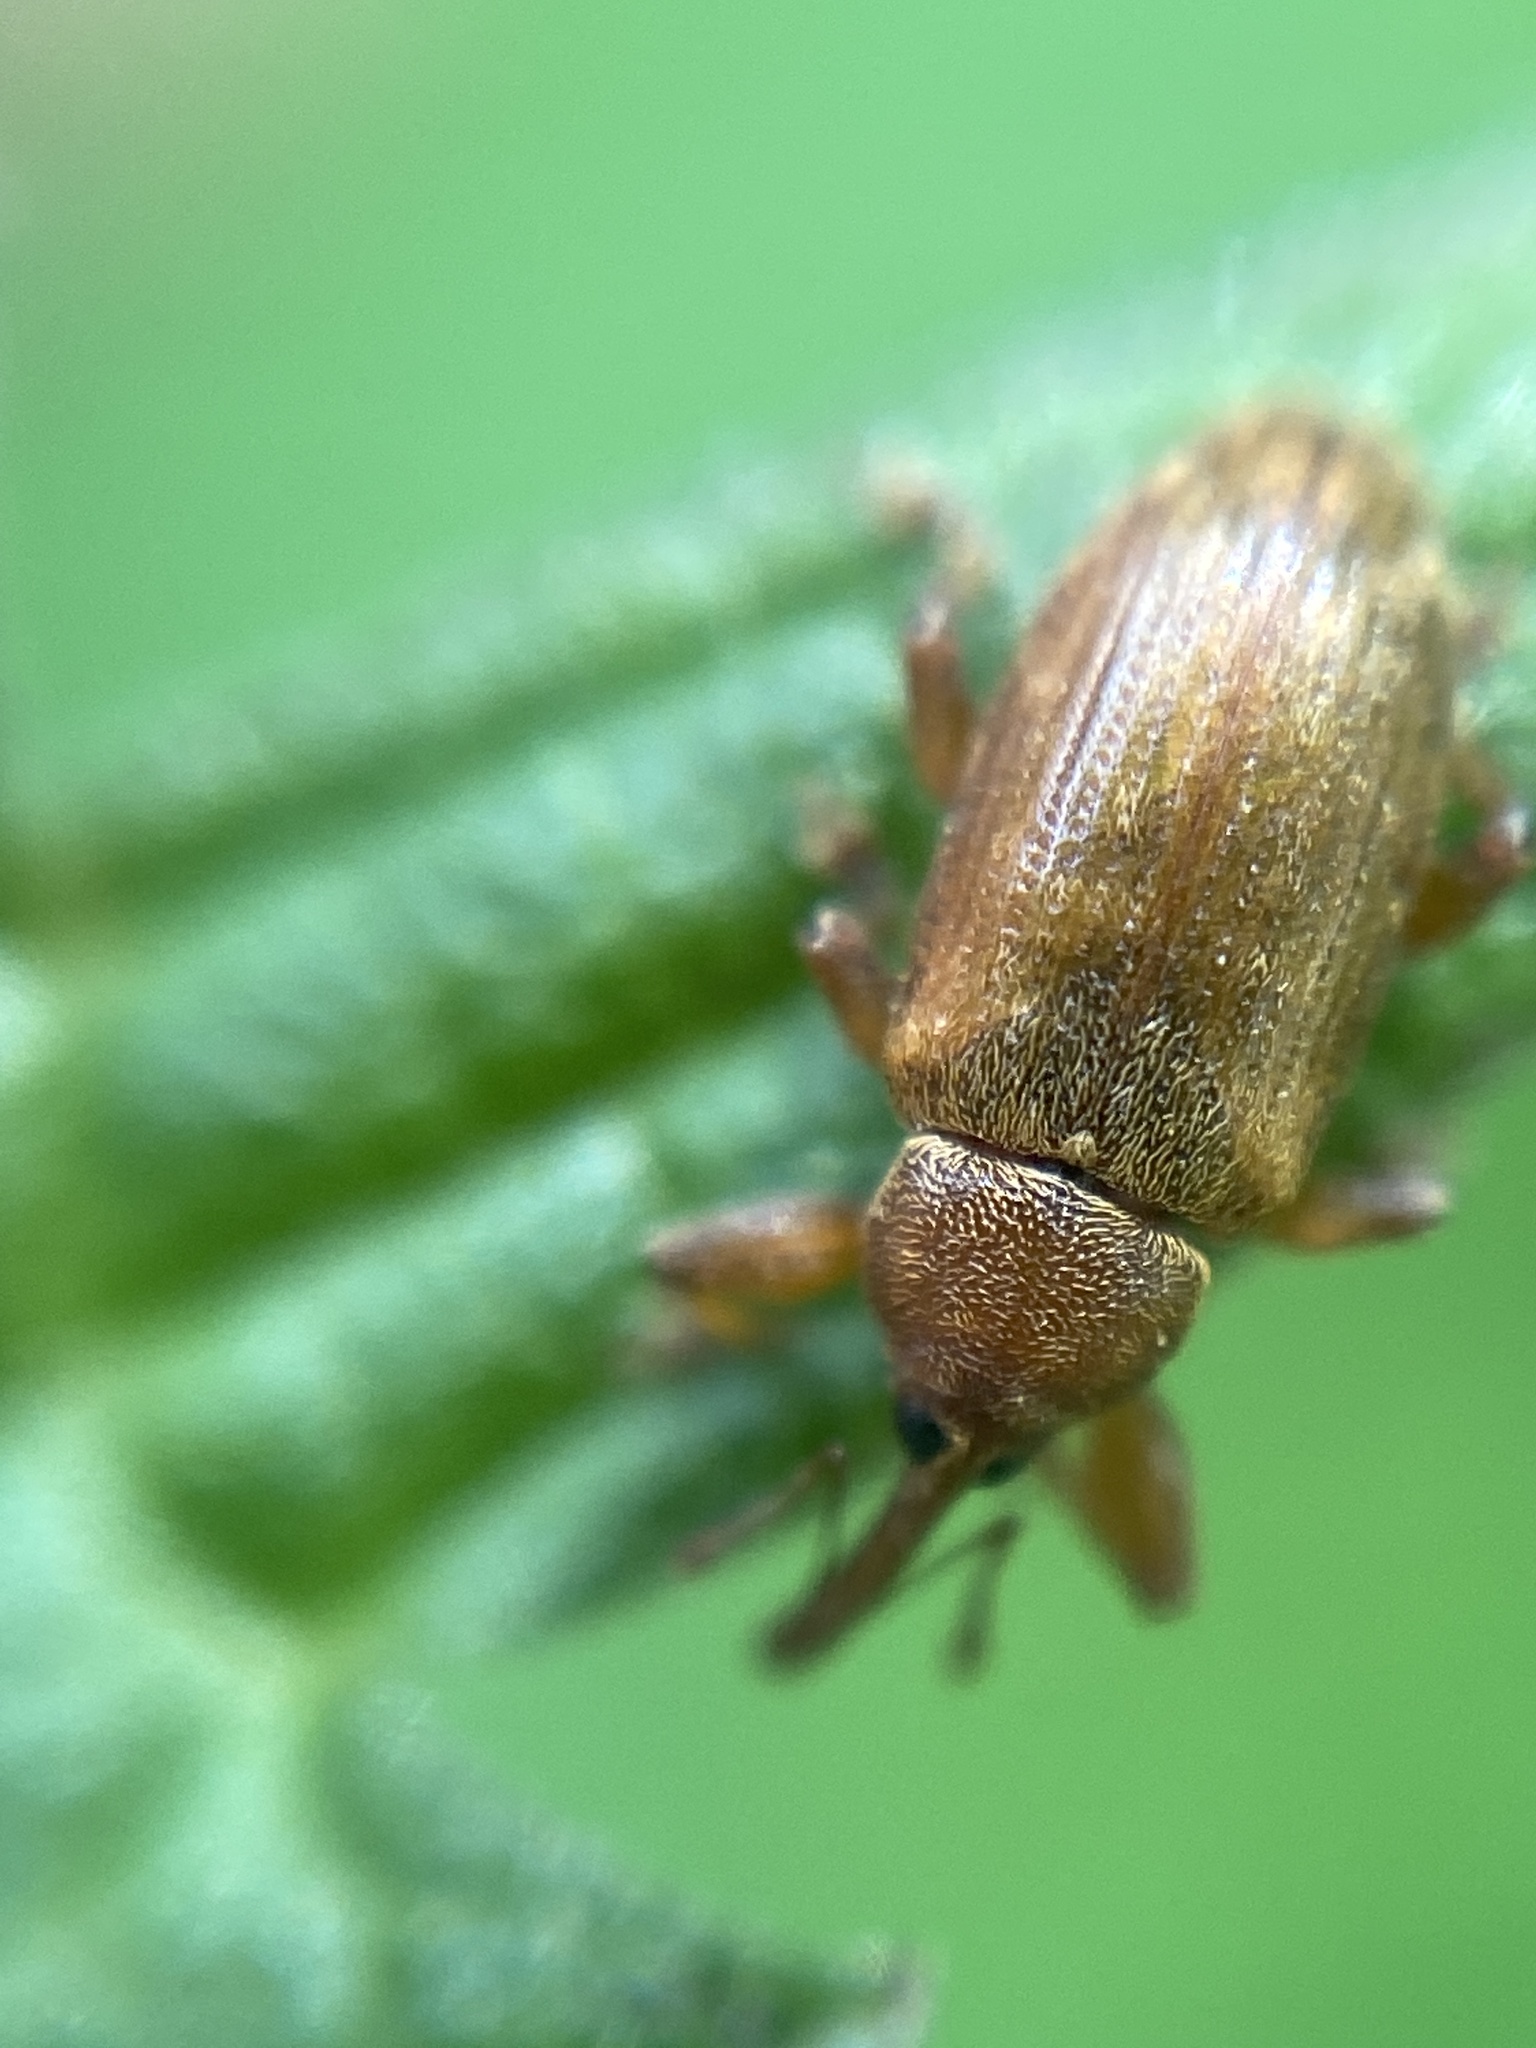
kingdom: Animalia
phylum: Arthropoda
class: Insecta
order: Coleoptera
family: Curculionidae
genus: Dorytomus
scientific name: Dorytomus tortrix
